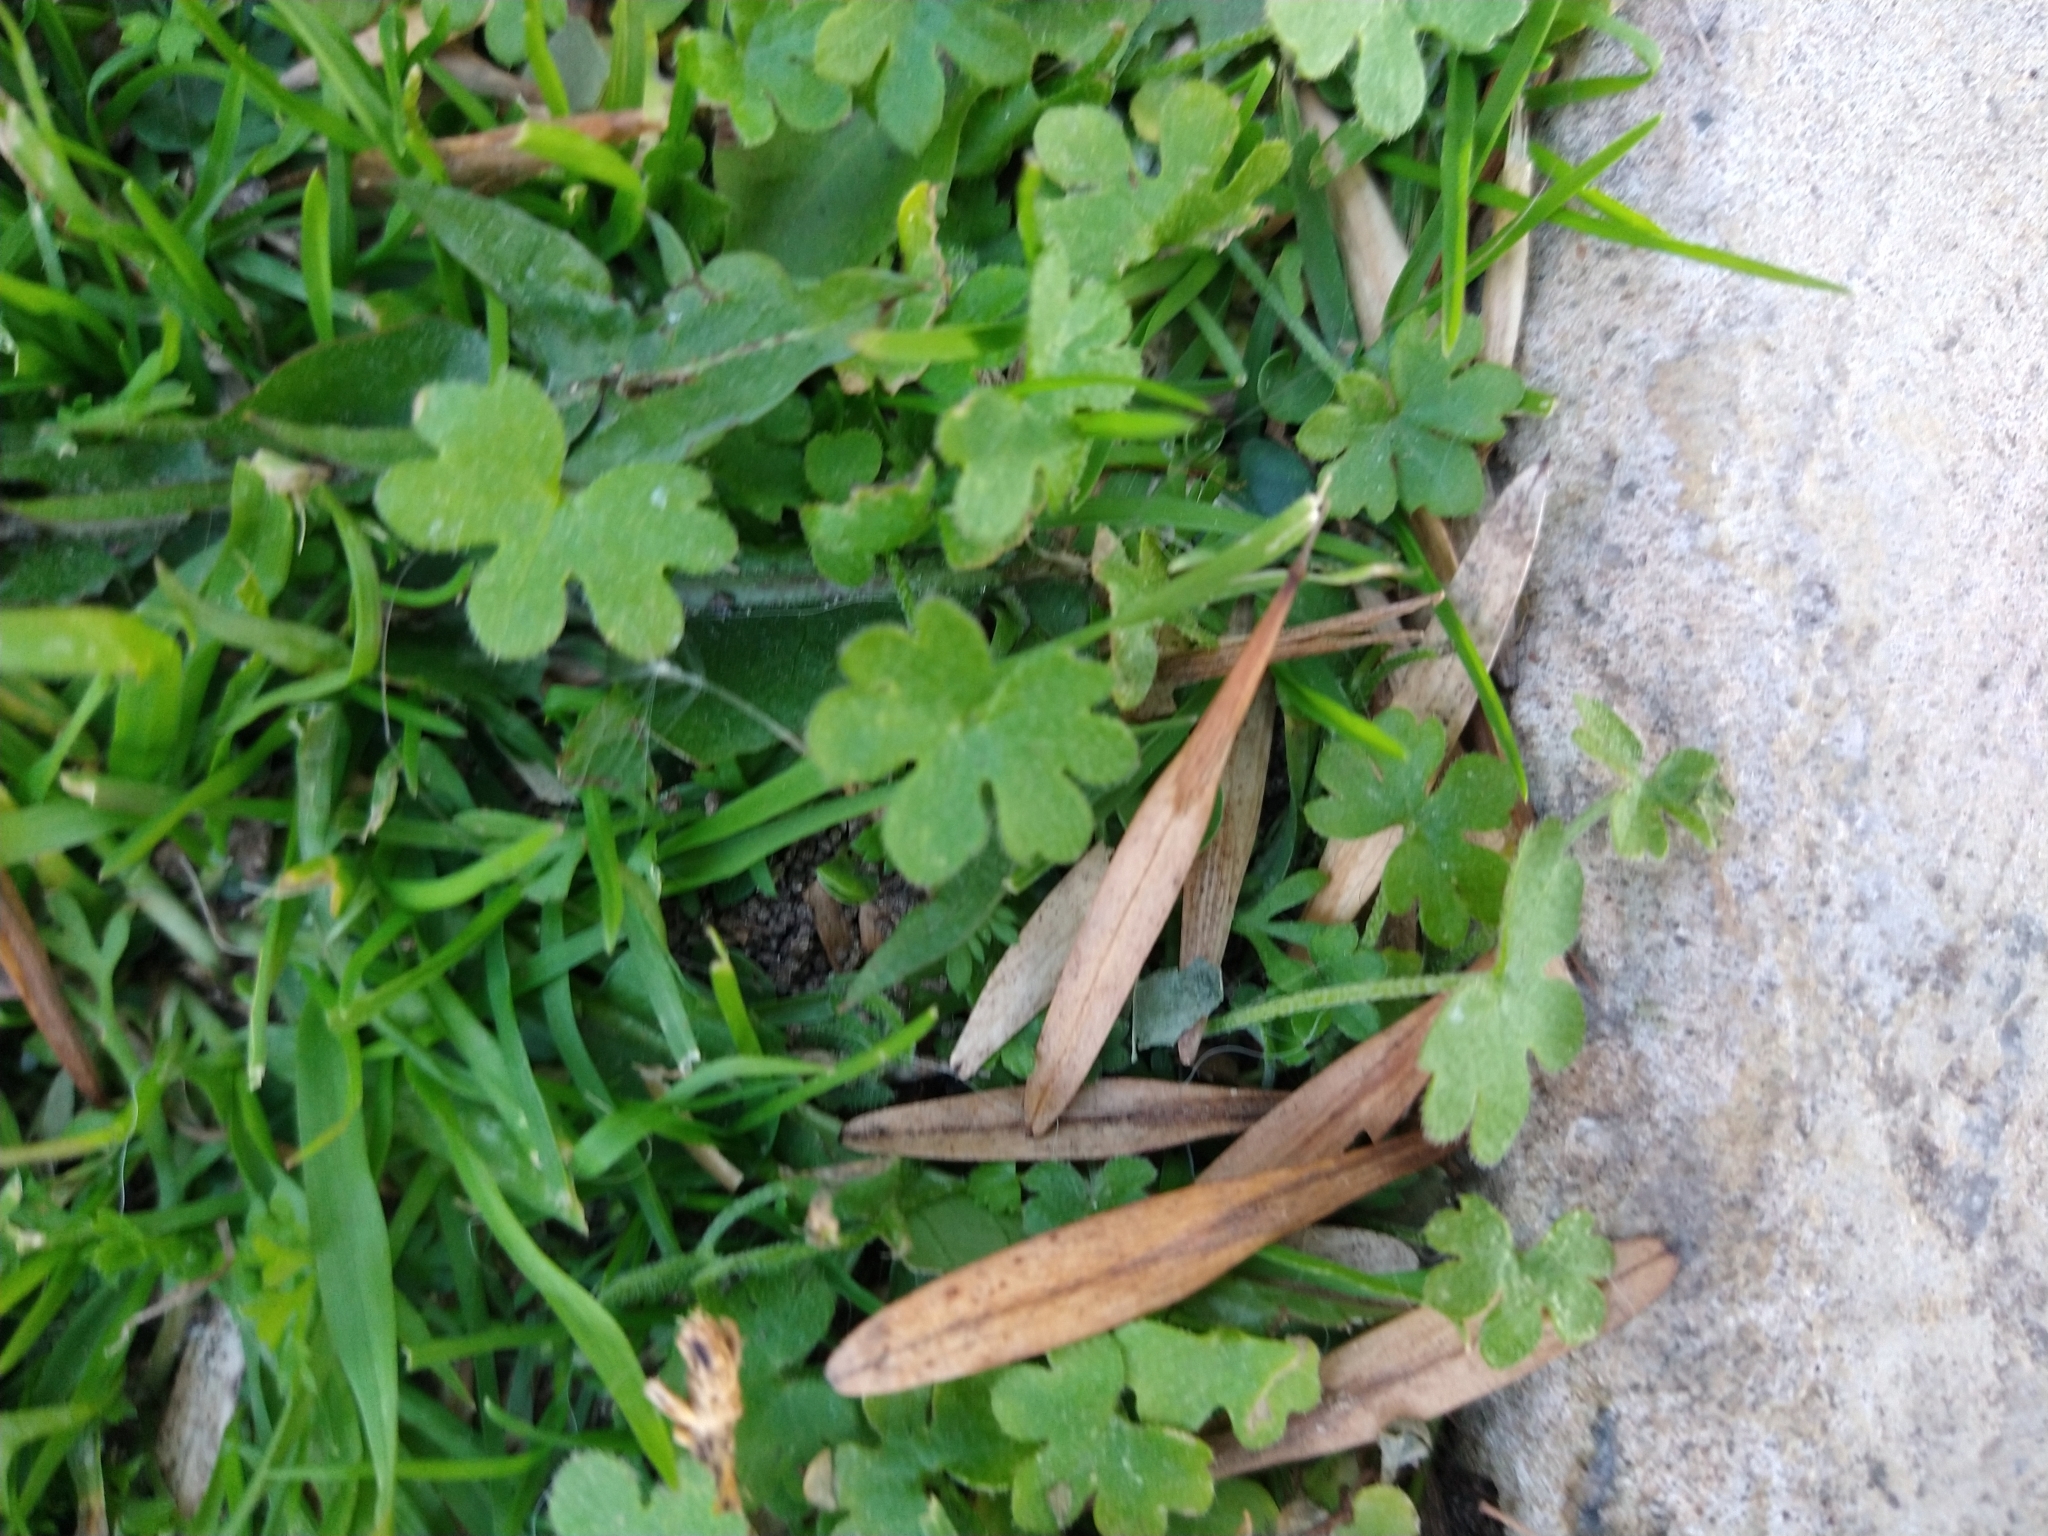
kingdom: Plantae
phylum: Tracheophyta
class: Magnoliopsida
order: Apiales
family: Apiaceae
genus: Bowlesia
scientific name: Bowlesia incana
